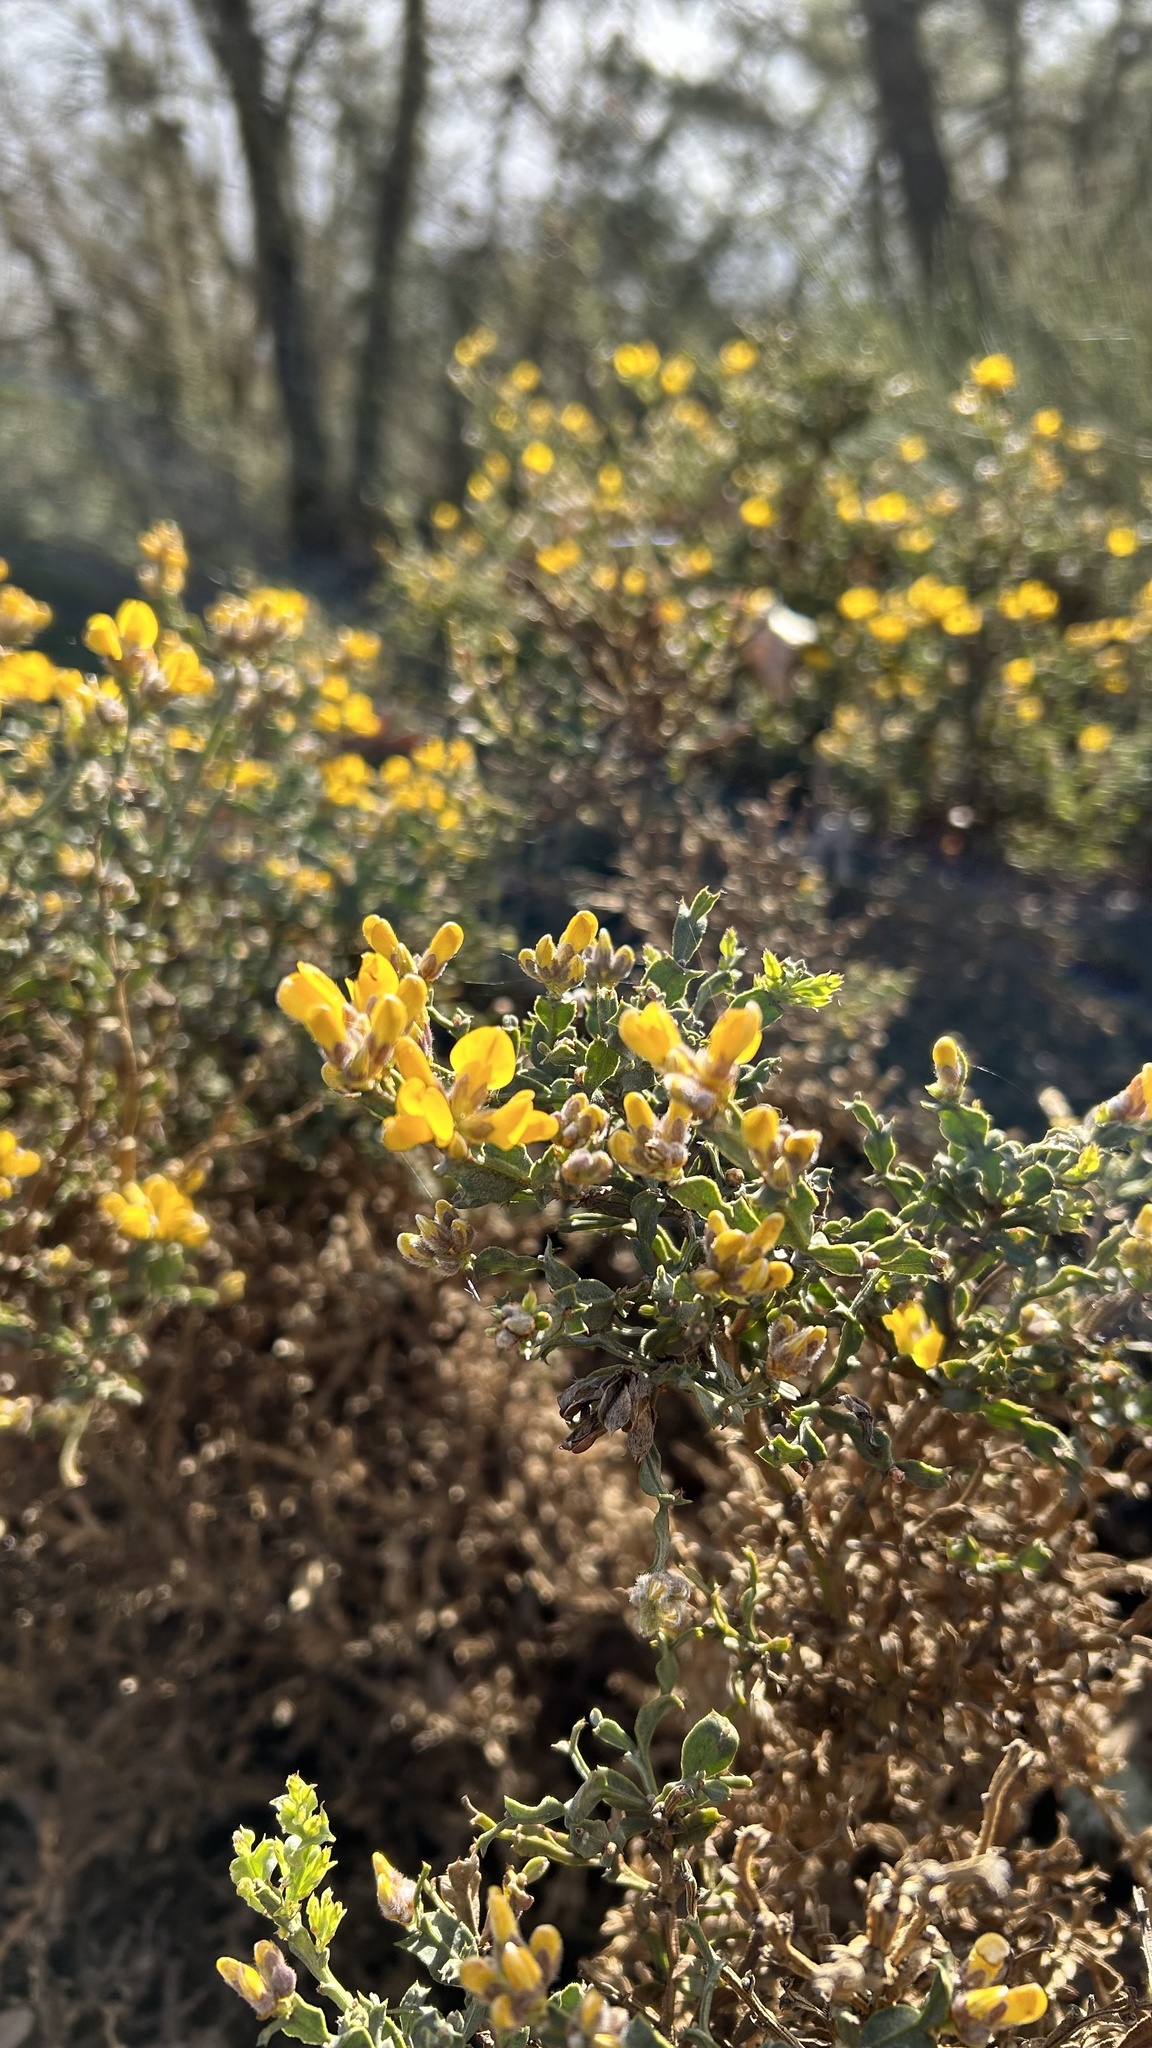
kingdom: Plantae
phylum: Tracheophyta
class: Magnoliopsida
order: Fabales
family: Fabaceae
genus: Genista
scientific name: Genista tridentata
